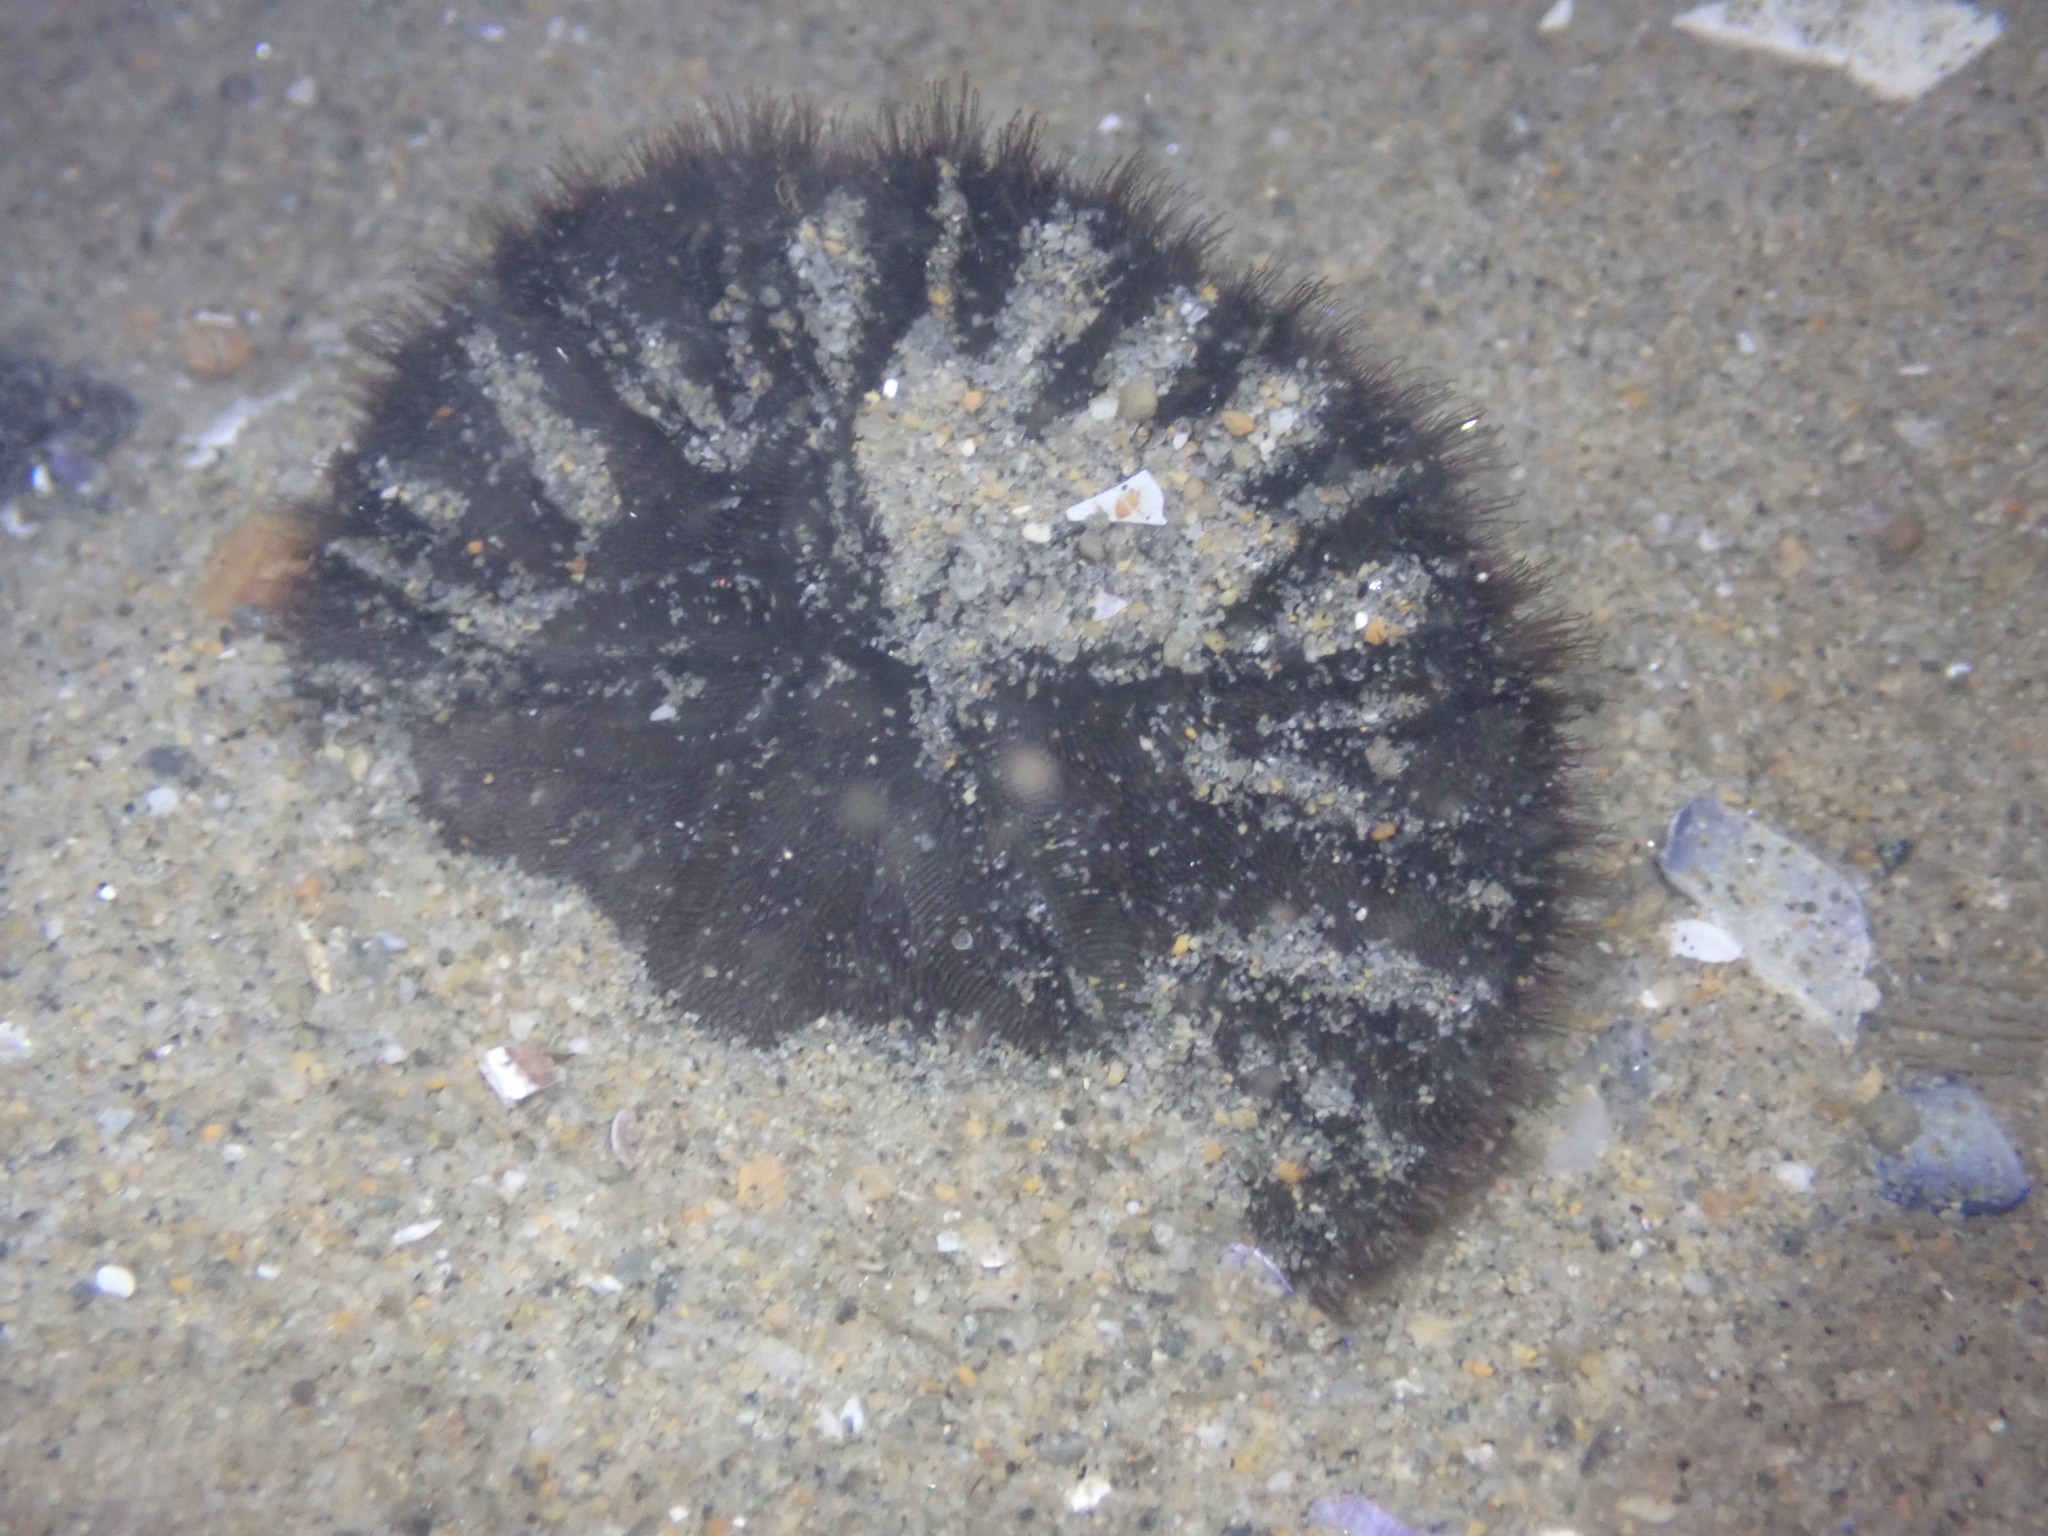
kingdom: Animalia
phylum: Echinodermata
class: Echinoidea
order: Echinolampadacea
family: Dendrasteridae
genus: Dendraster
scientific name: Dendraster excentricus
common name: Eccentric sand dollar sea urchin
